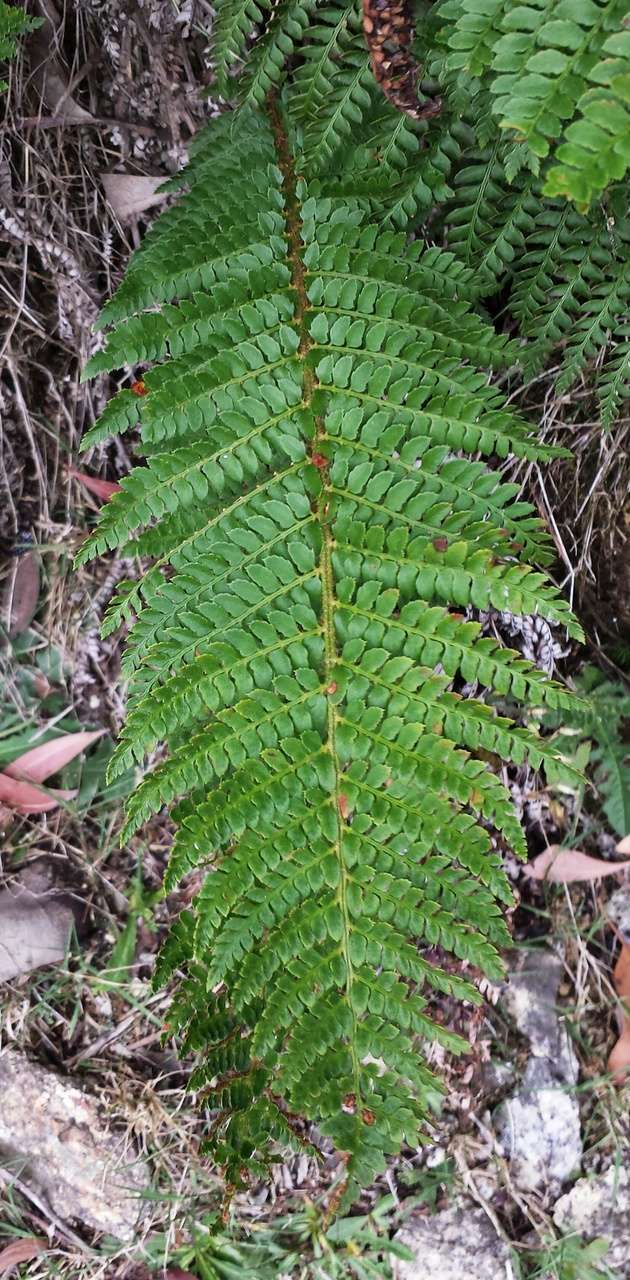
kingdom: Plantae
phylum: Tracheophyta
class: Polypodiopsida
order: Polypodiales
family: Dryopteridaceae
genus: Polystichum
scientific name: Polystichum proliferum
